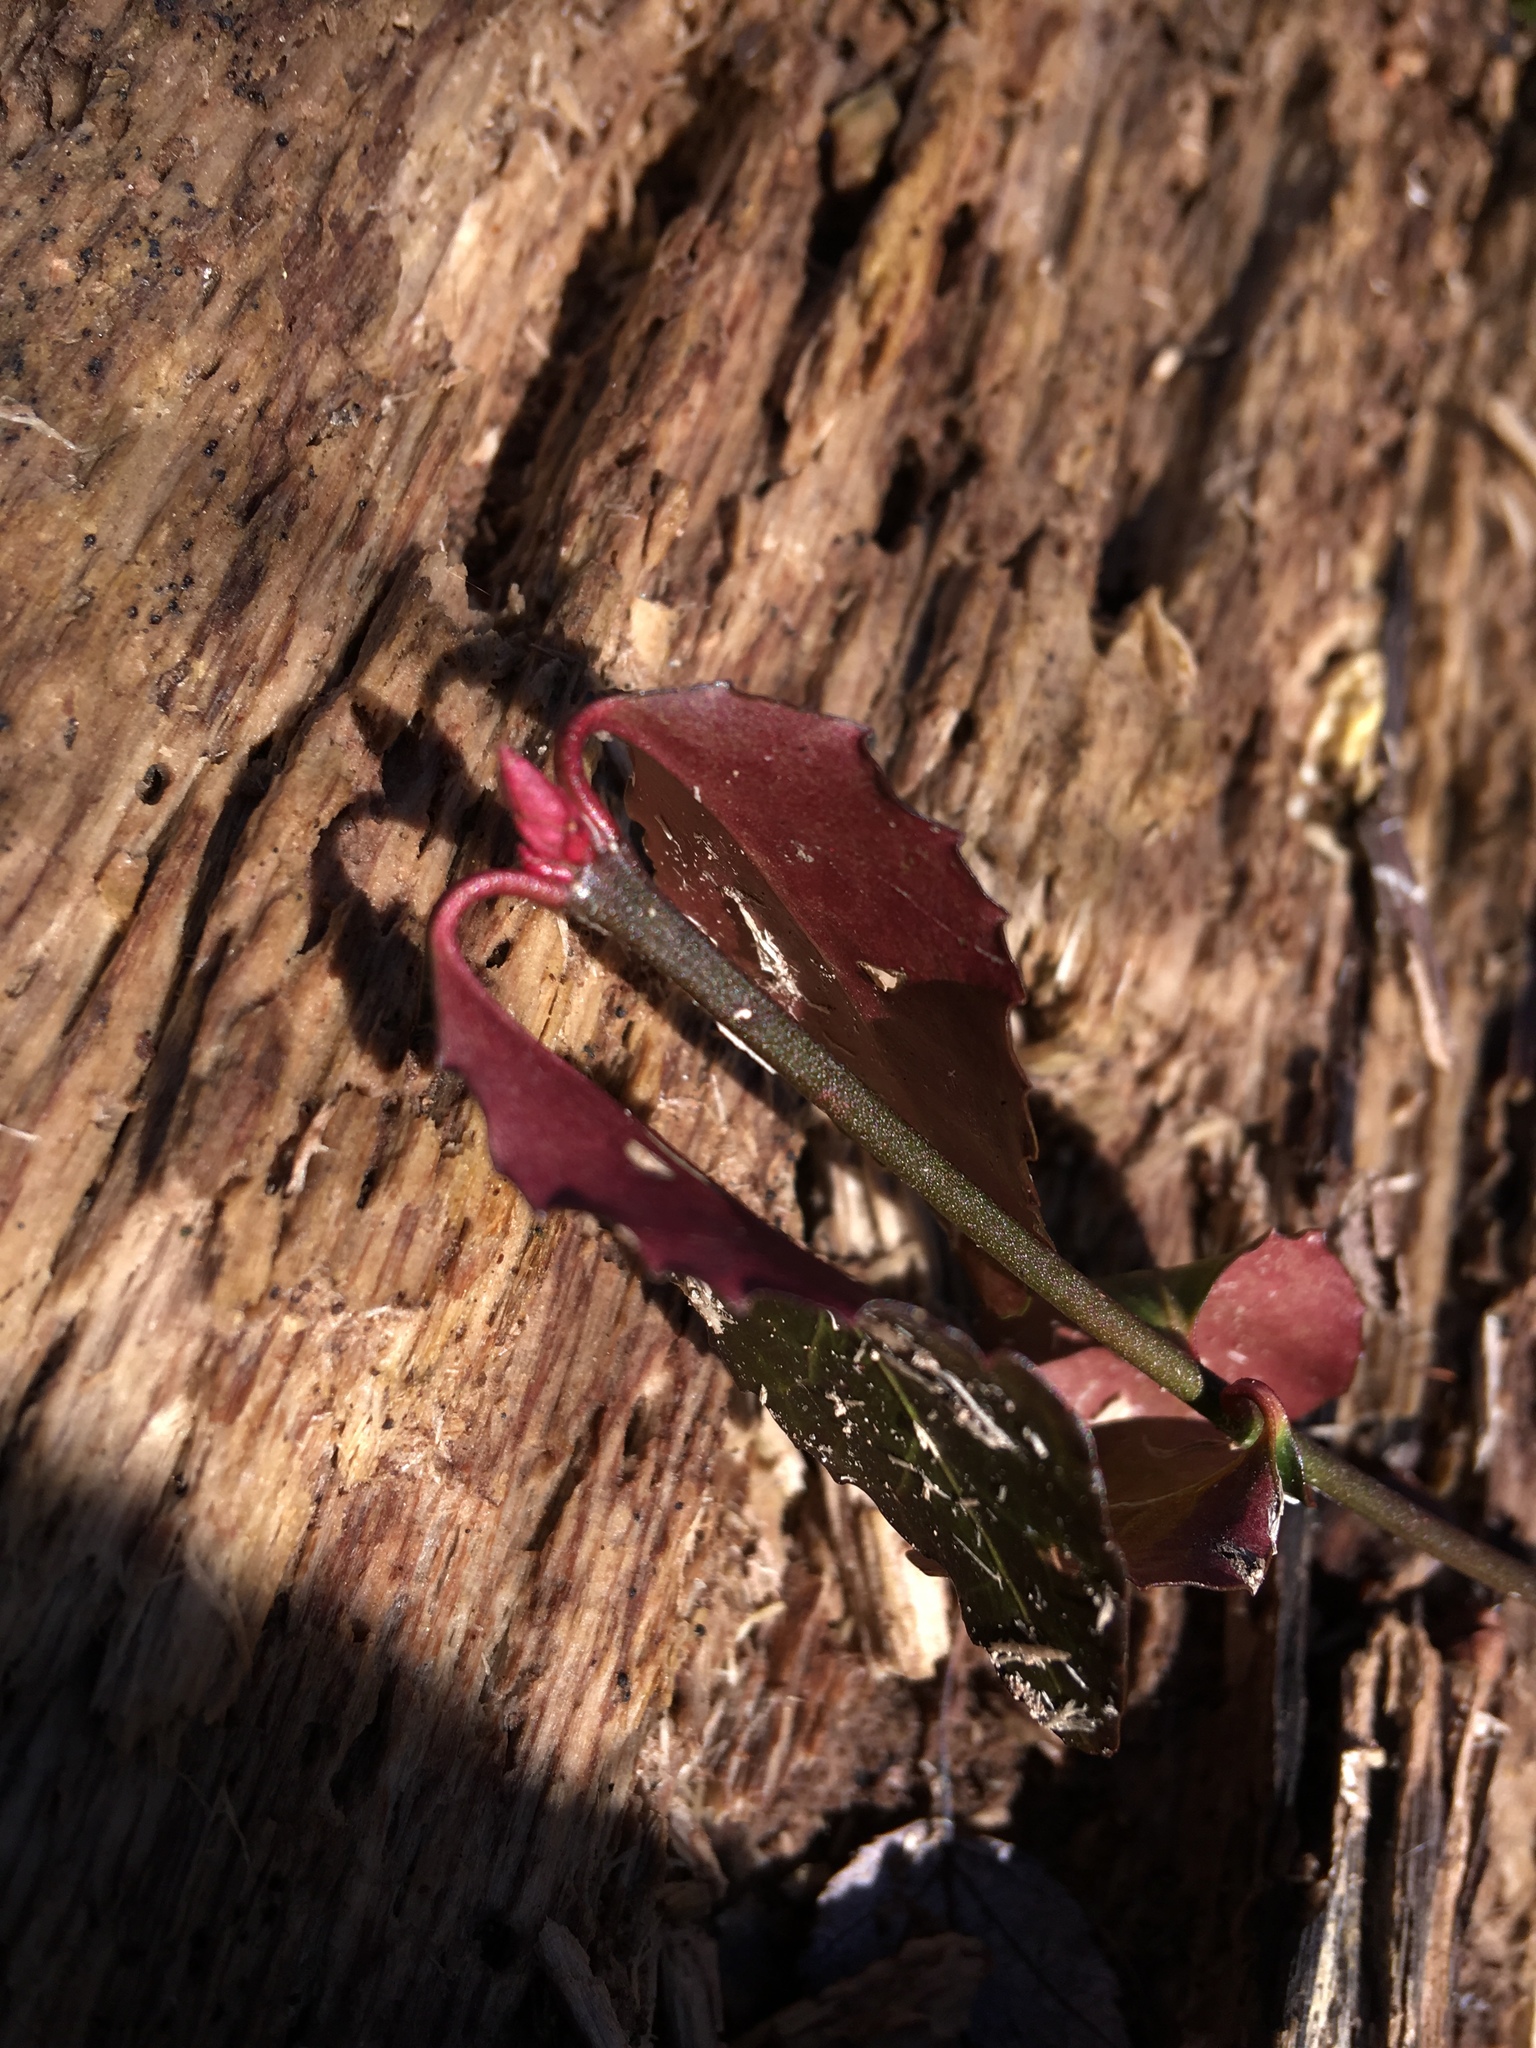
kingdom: Plantae
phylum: Tracheophyta
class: Magnoliopsida
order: Celastrales
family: Celastraceae
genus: Euonymus
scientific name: Euonymus fortunei
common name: Climbing euonymus
